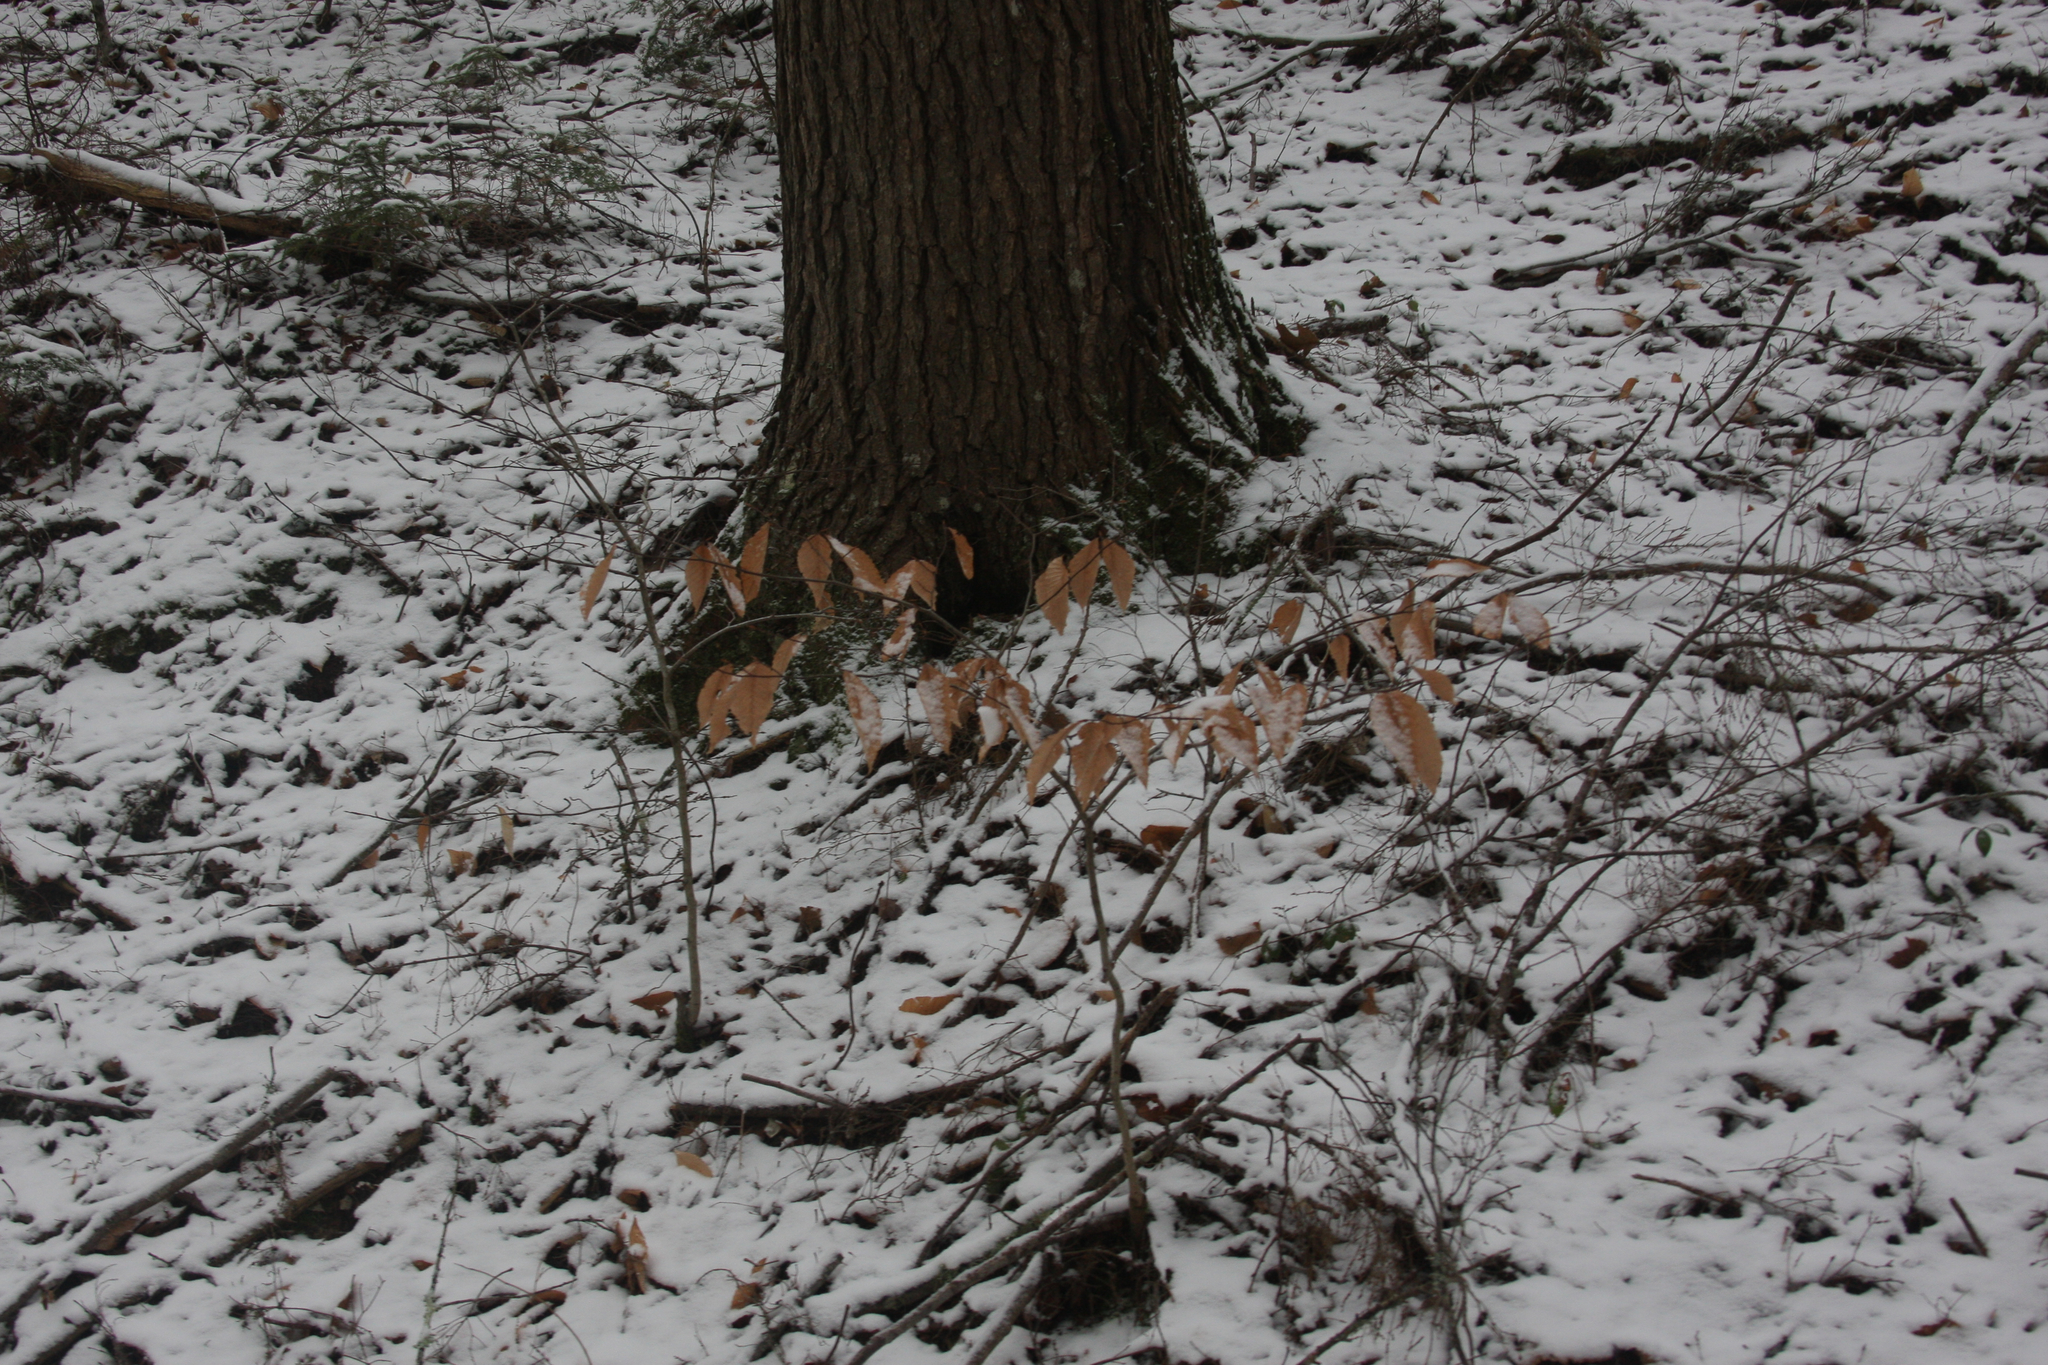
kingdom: Plantae
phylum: Tracheophyta
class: Magnoliopsida
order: Fagales
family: Fagaceae
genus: Fagus
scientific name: Fagus grandifolia
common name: American beech
